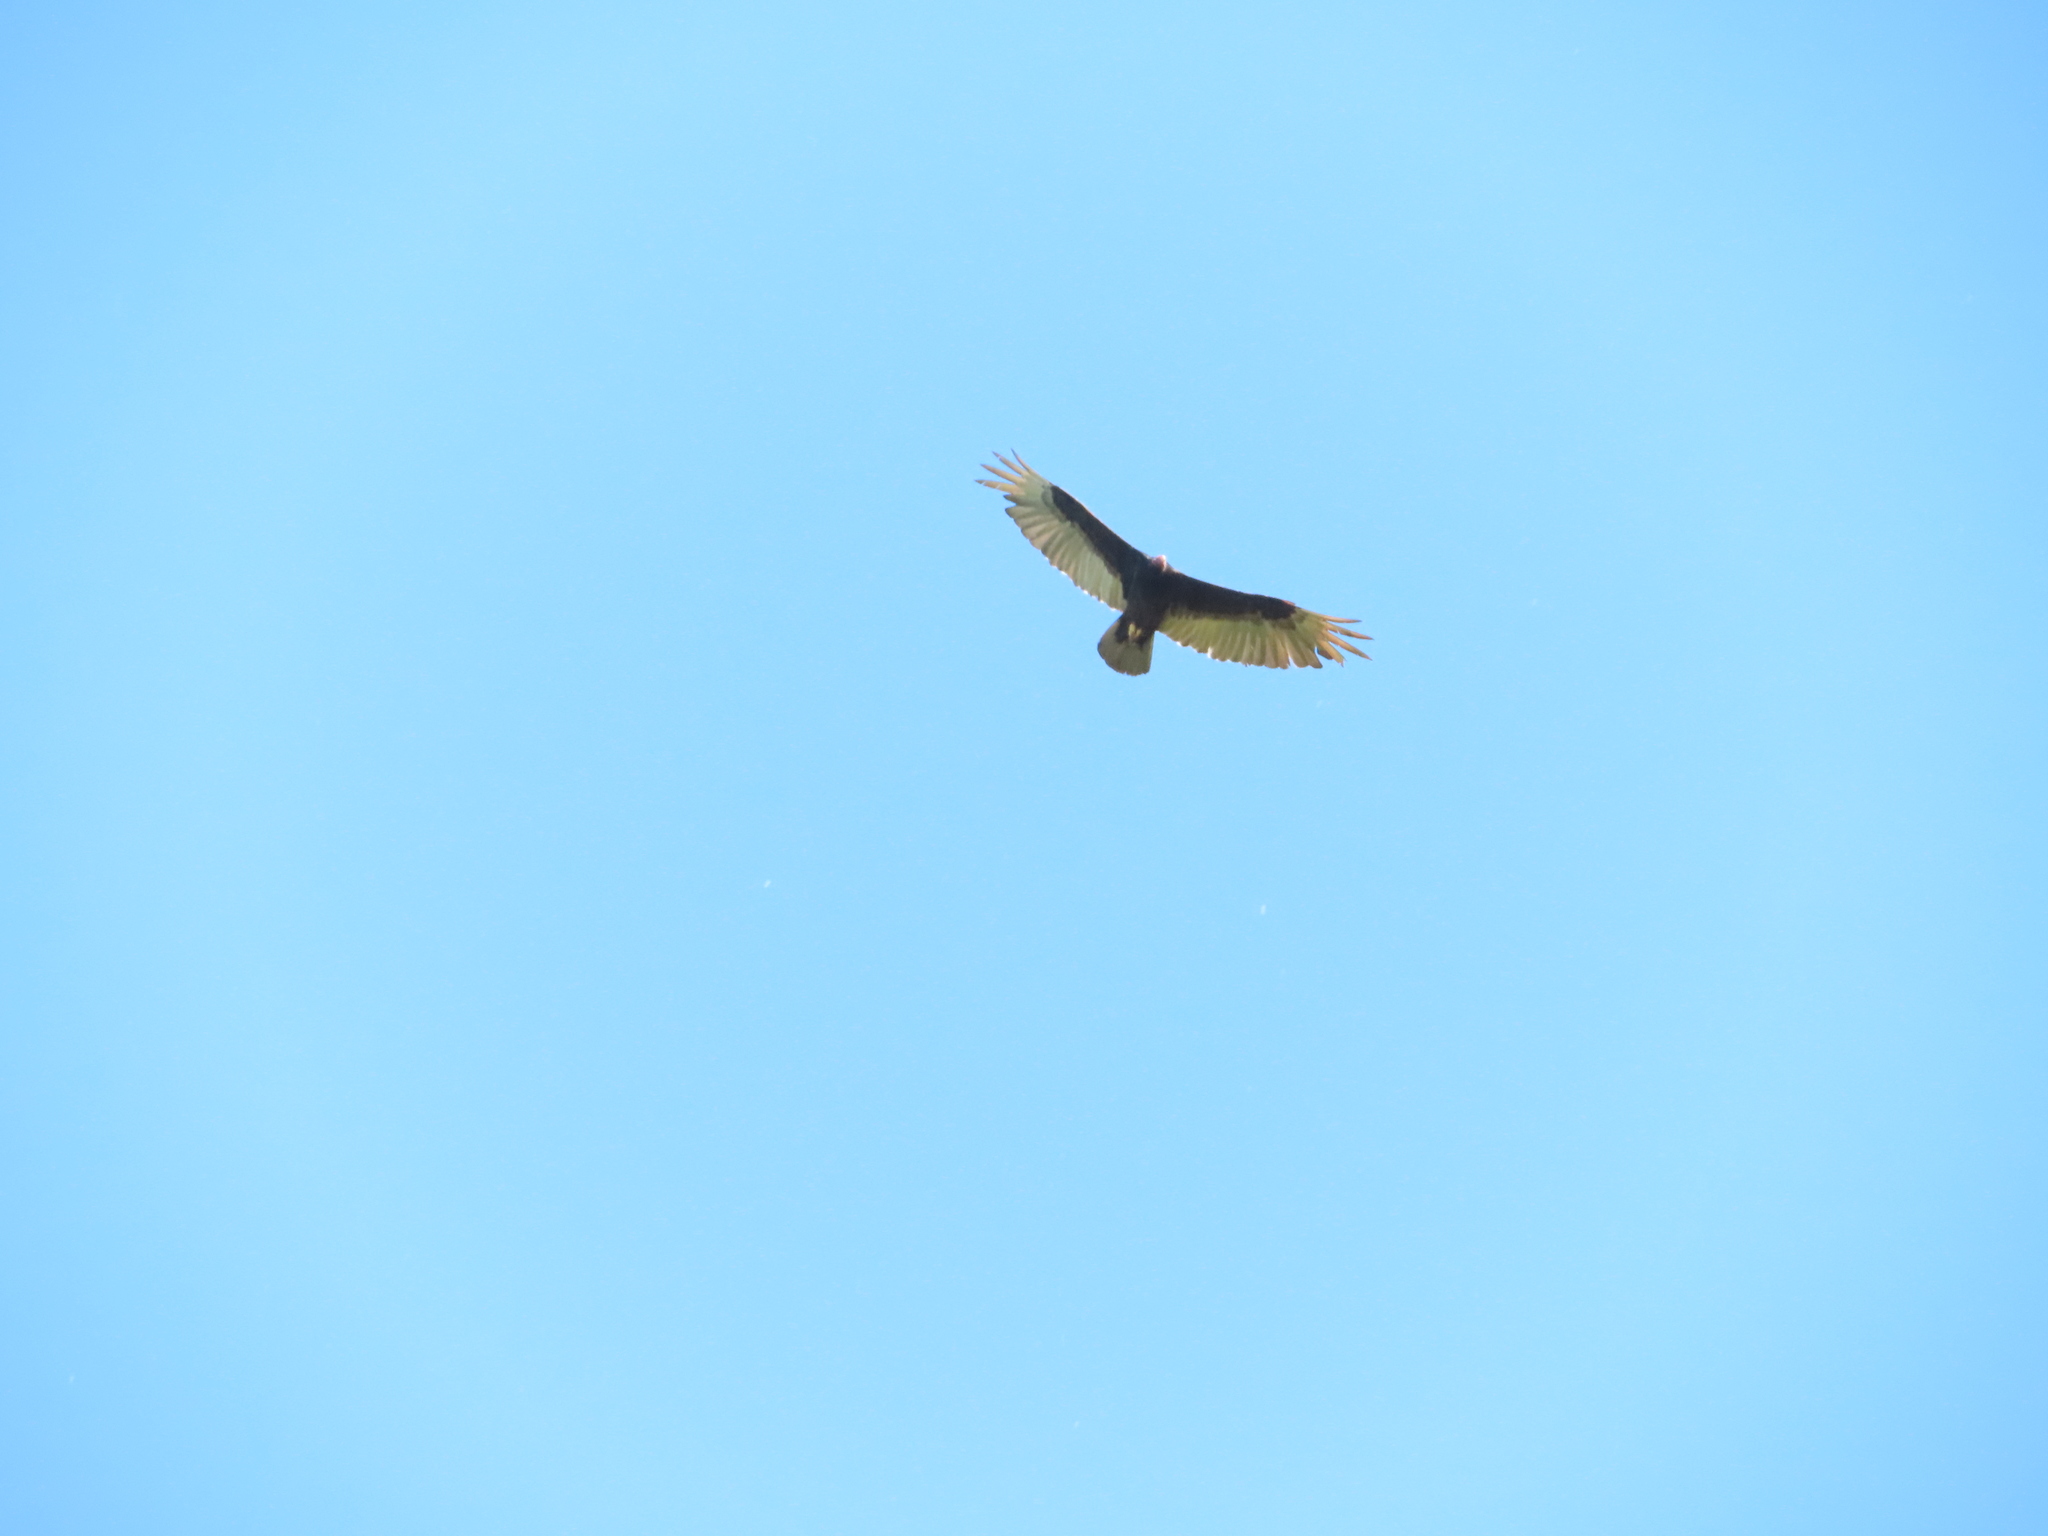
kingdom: Animalia
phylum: Chordata
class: Aves
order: Accipitriformes
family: Cathartidae
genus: Cathartes
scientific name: Cathartes aura
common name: Turkey vulture
